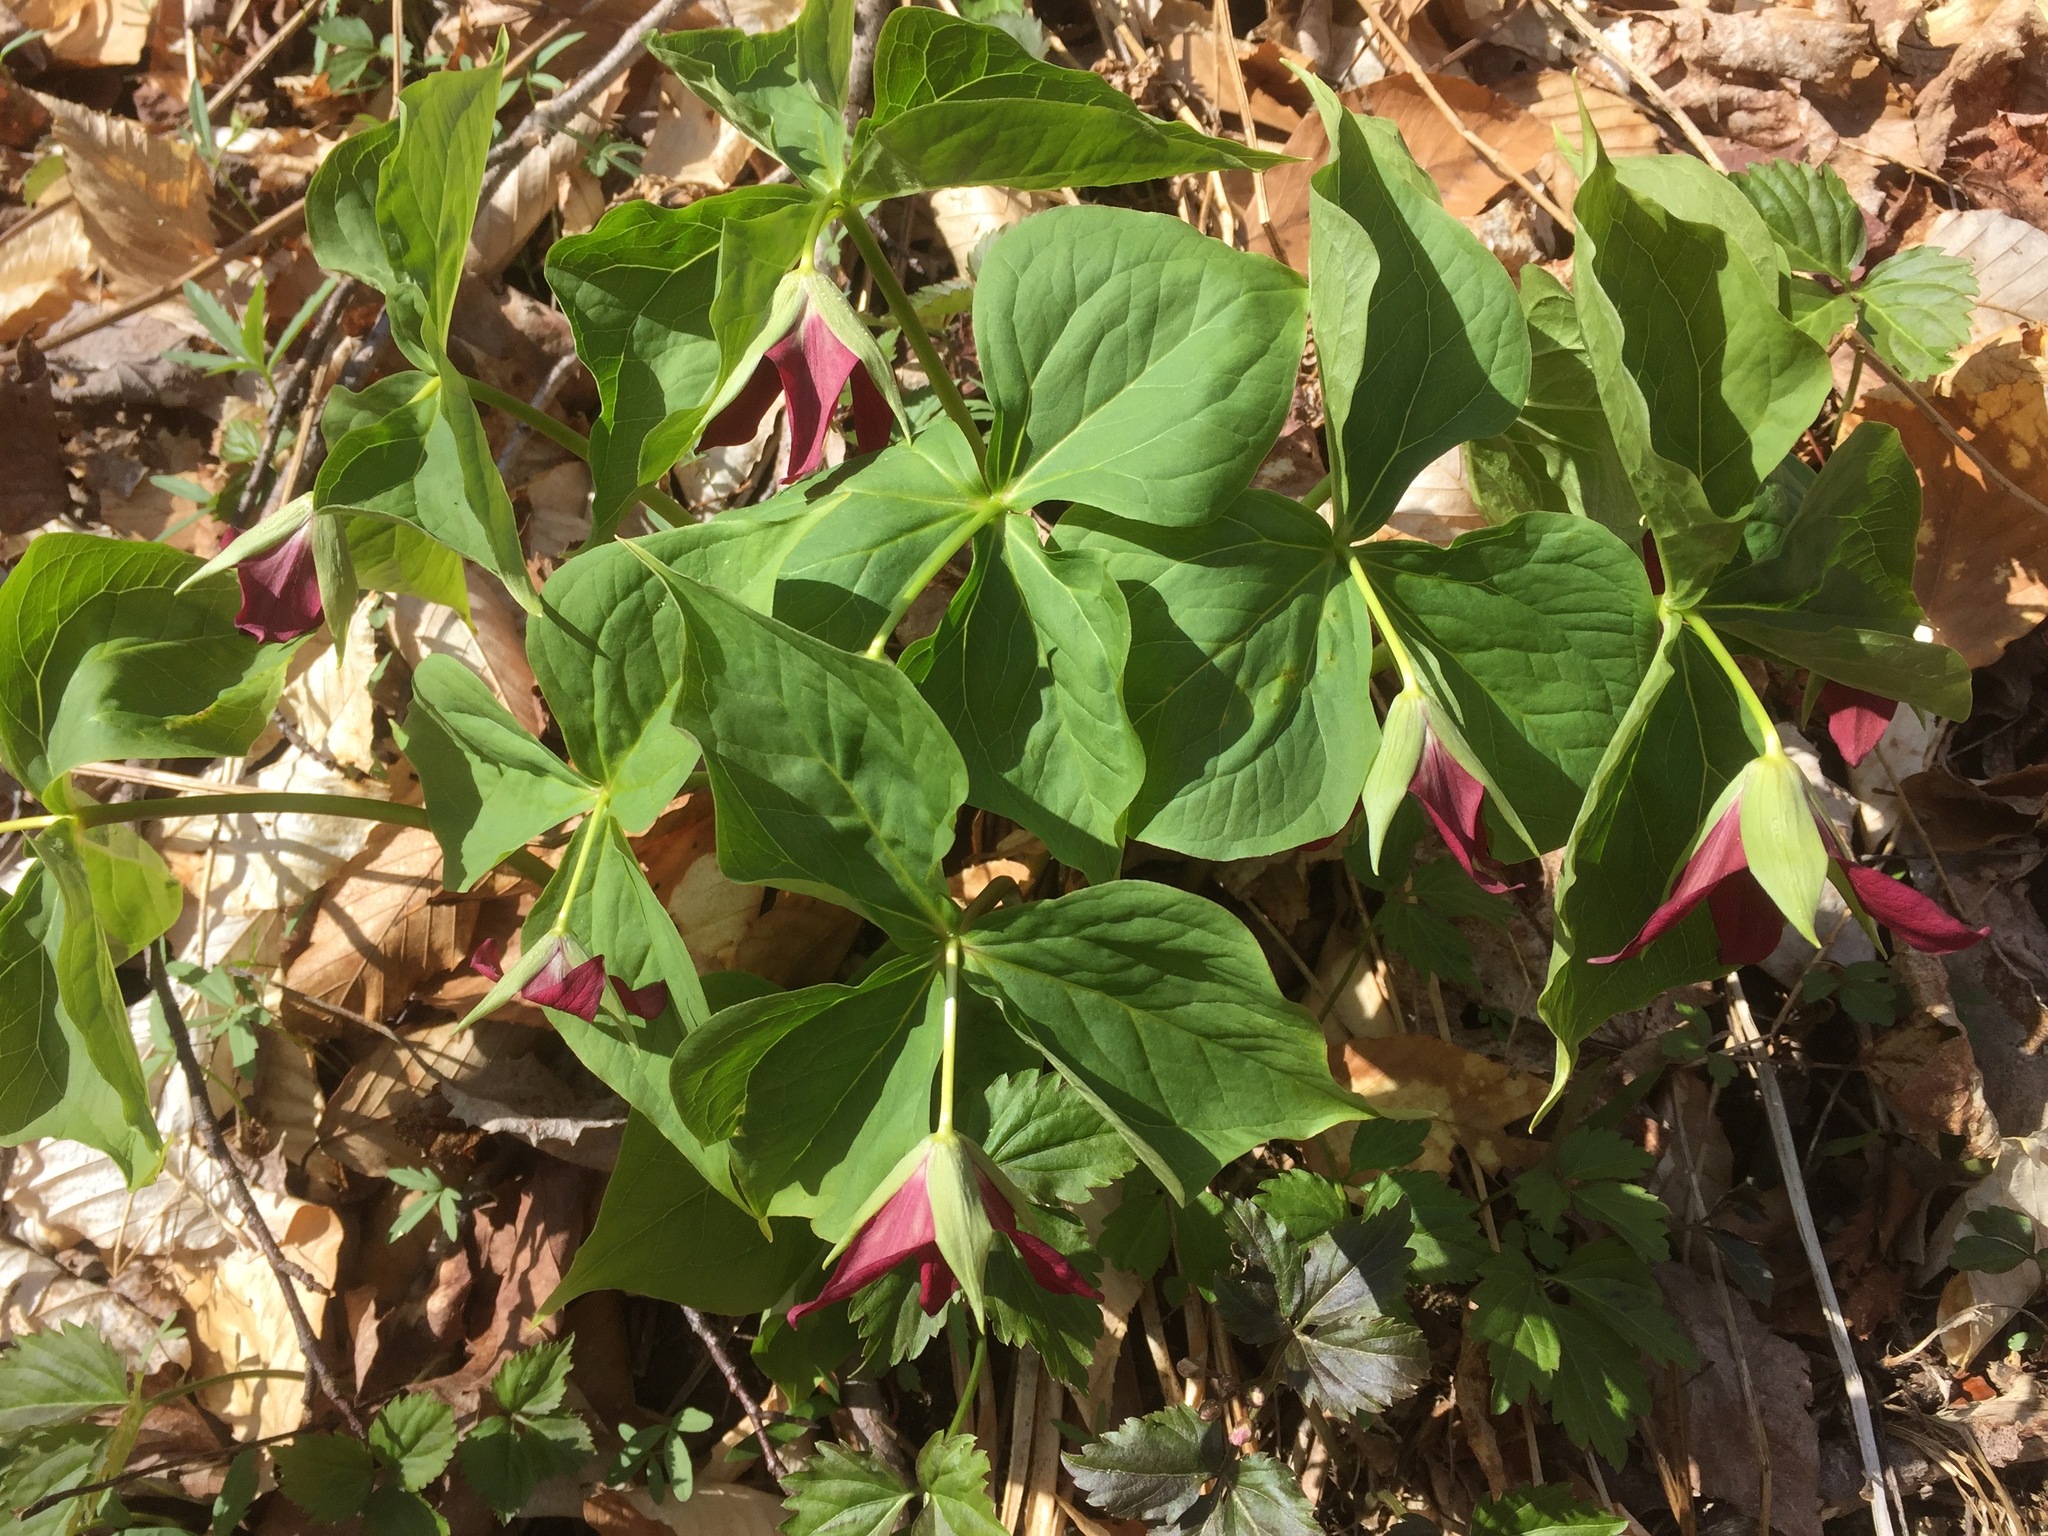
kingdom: Plantae
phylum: Tracheophyta
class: Liliopsida
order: Liliales
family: Melanthiaceae
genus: Trillium
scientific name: Trillium erectum
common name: Purple trillium
